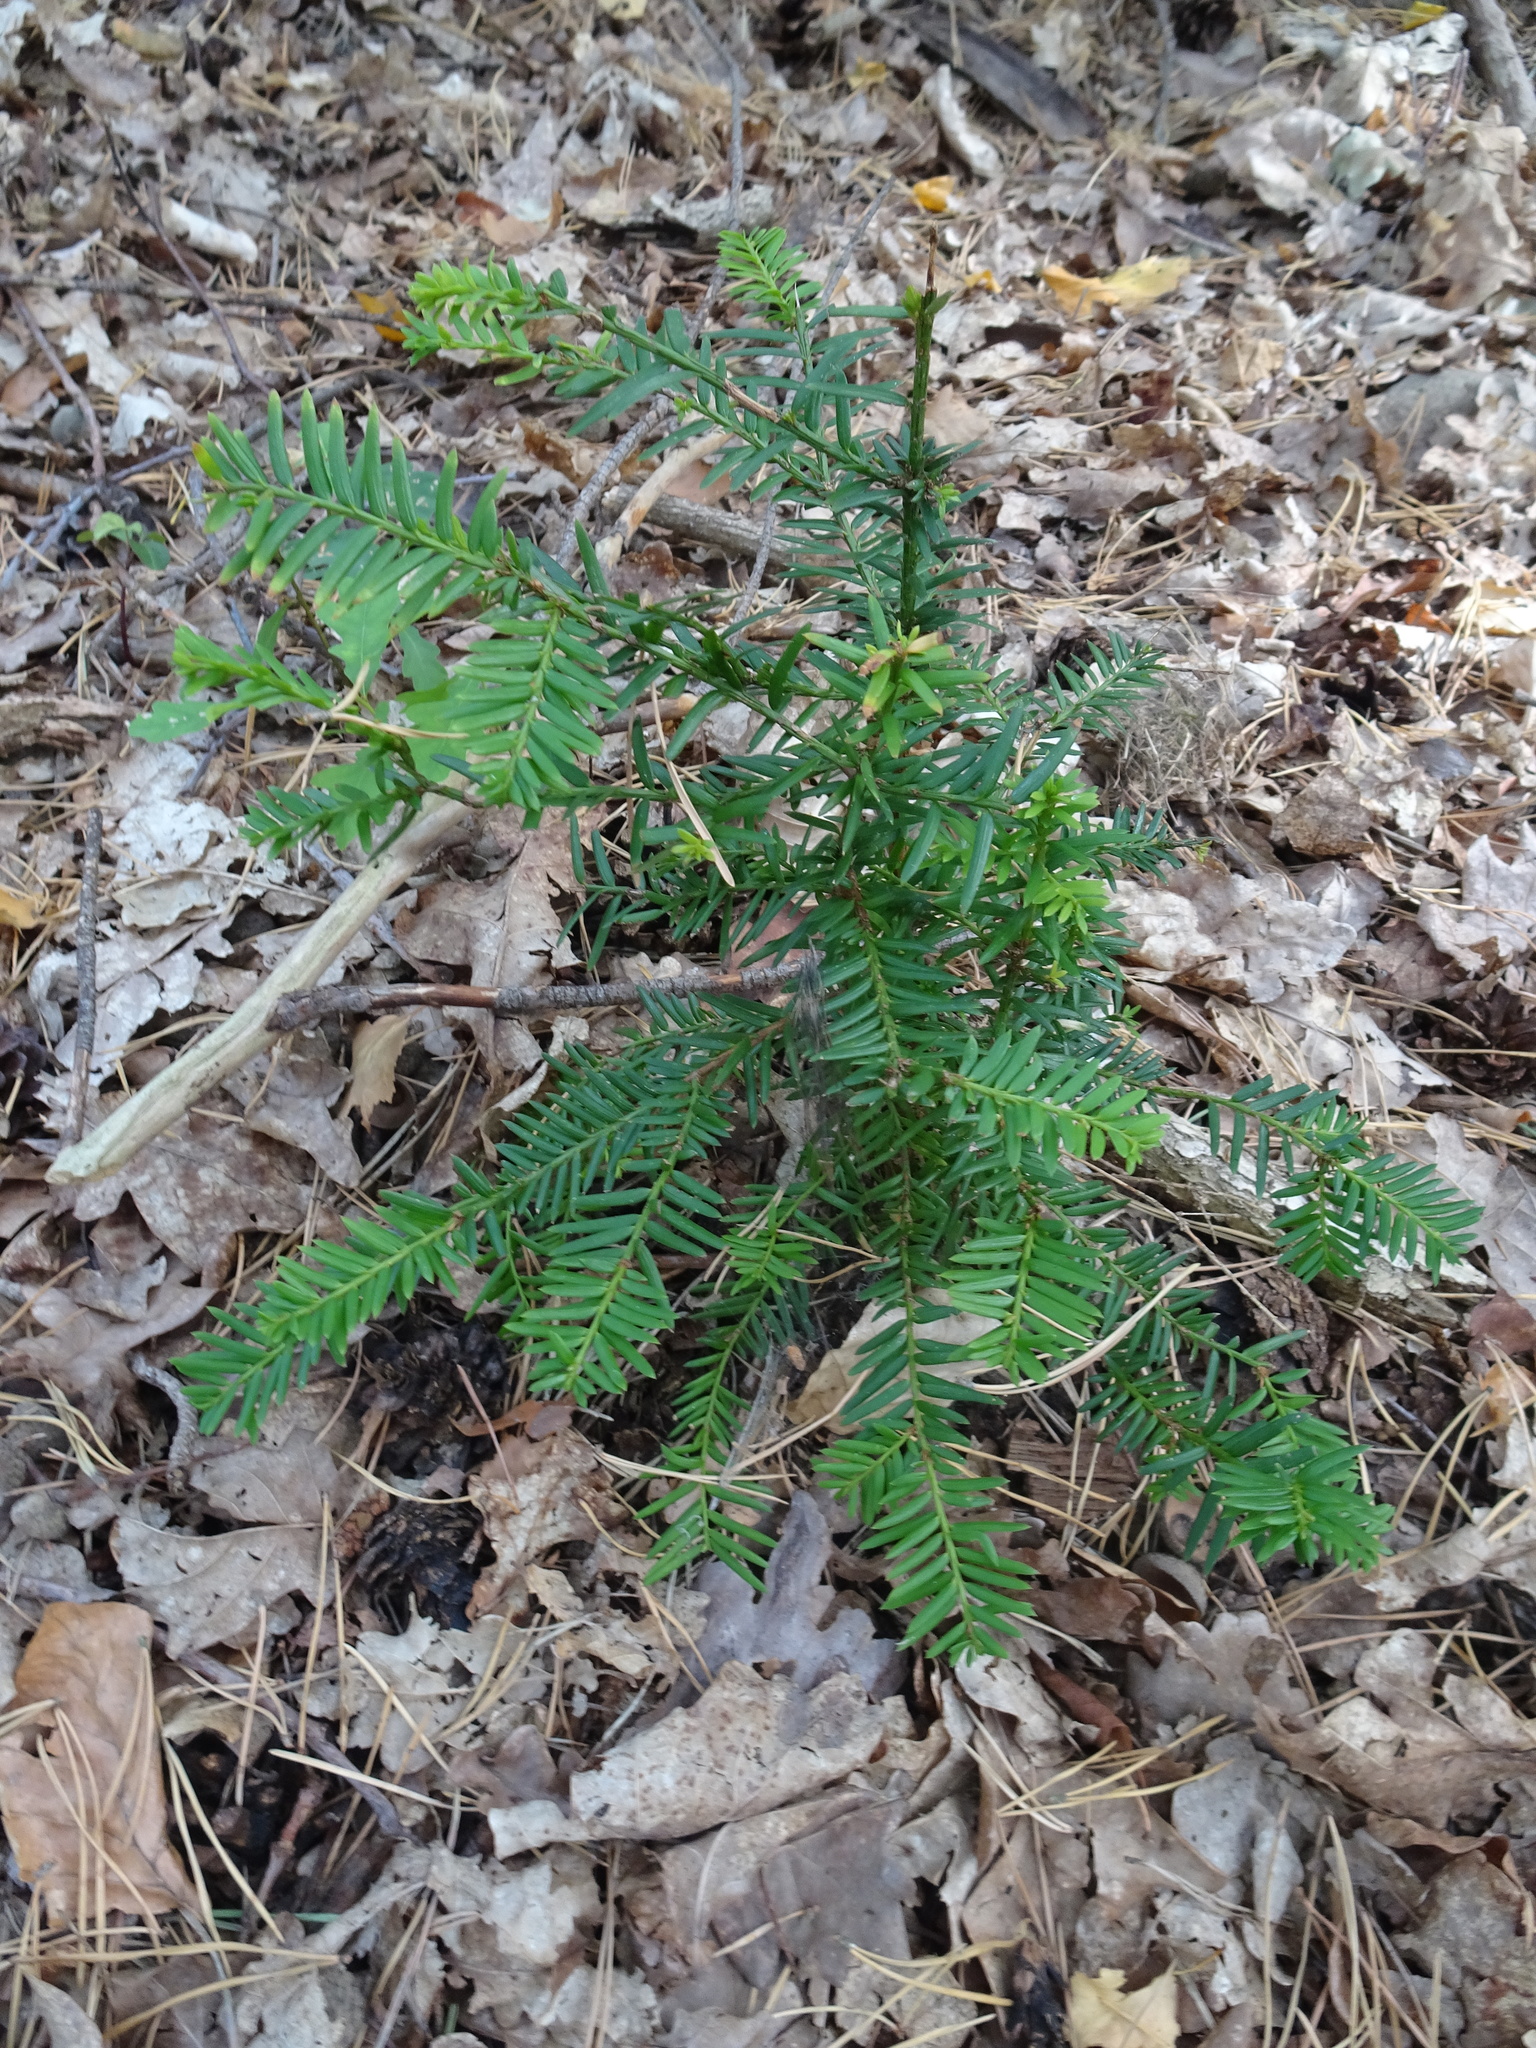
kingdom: Plantae
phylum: Tracheophyta
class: Pinopsida
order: Pinales
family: Taxaceae
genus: Taxus
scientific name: Taxus baccata
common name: Yew
